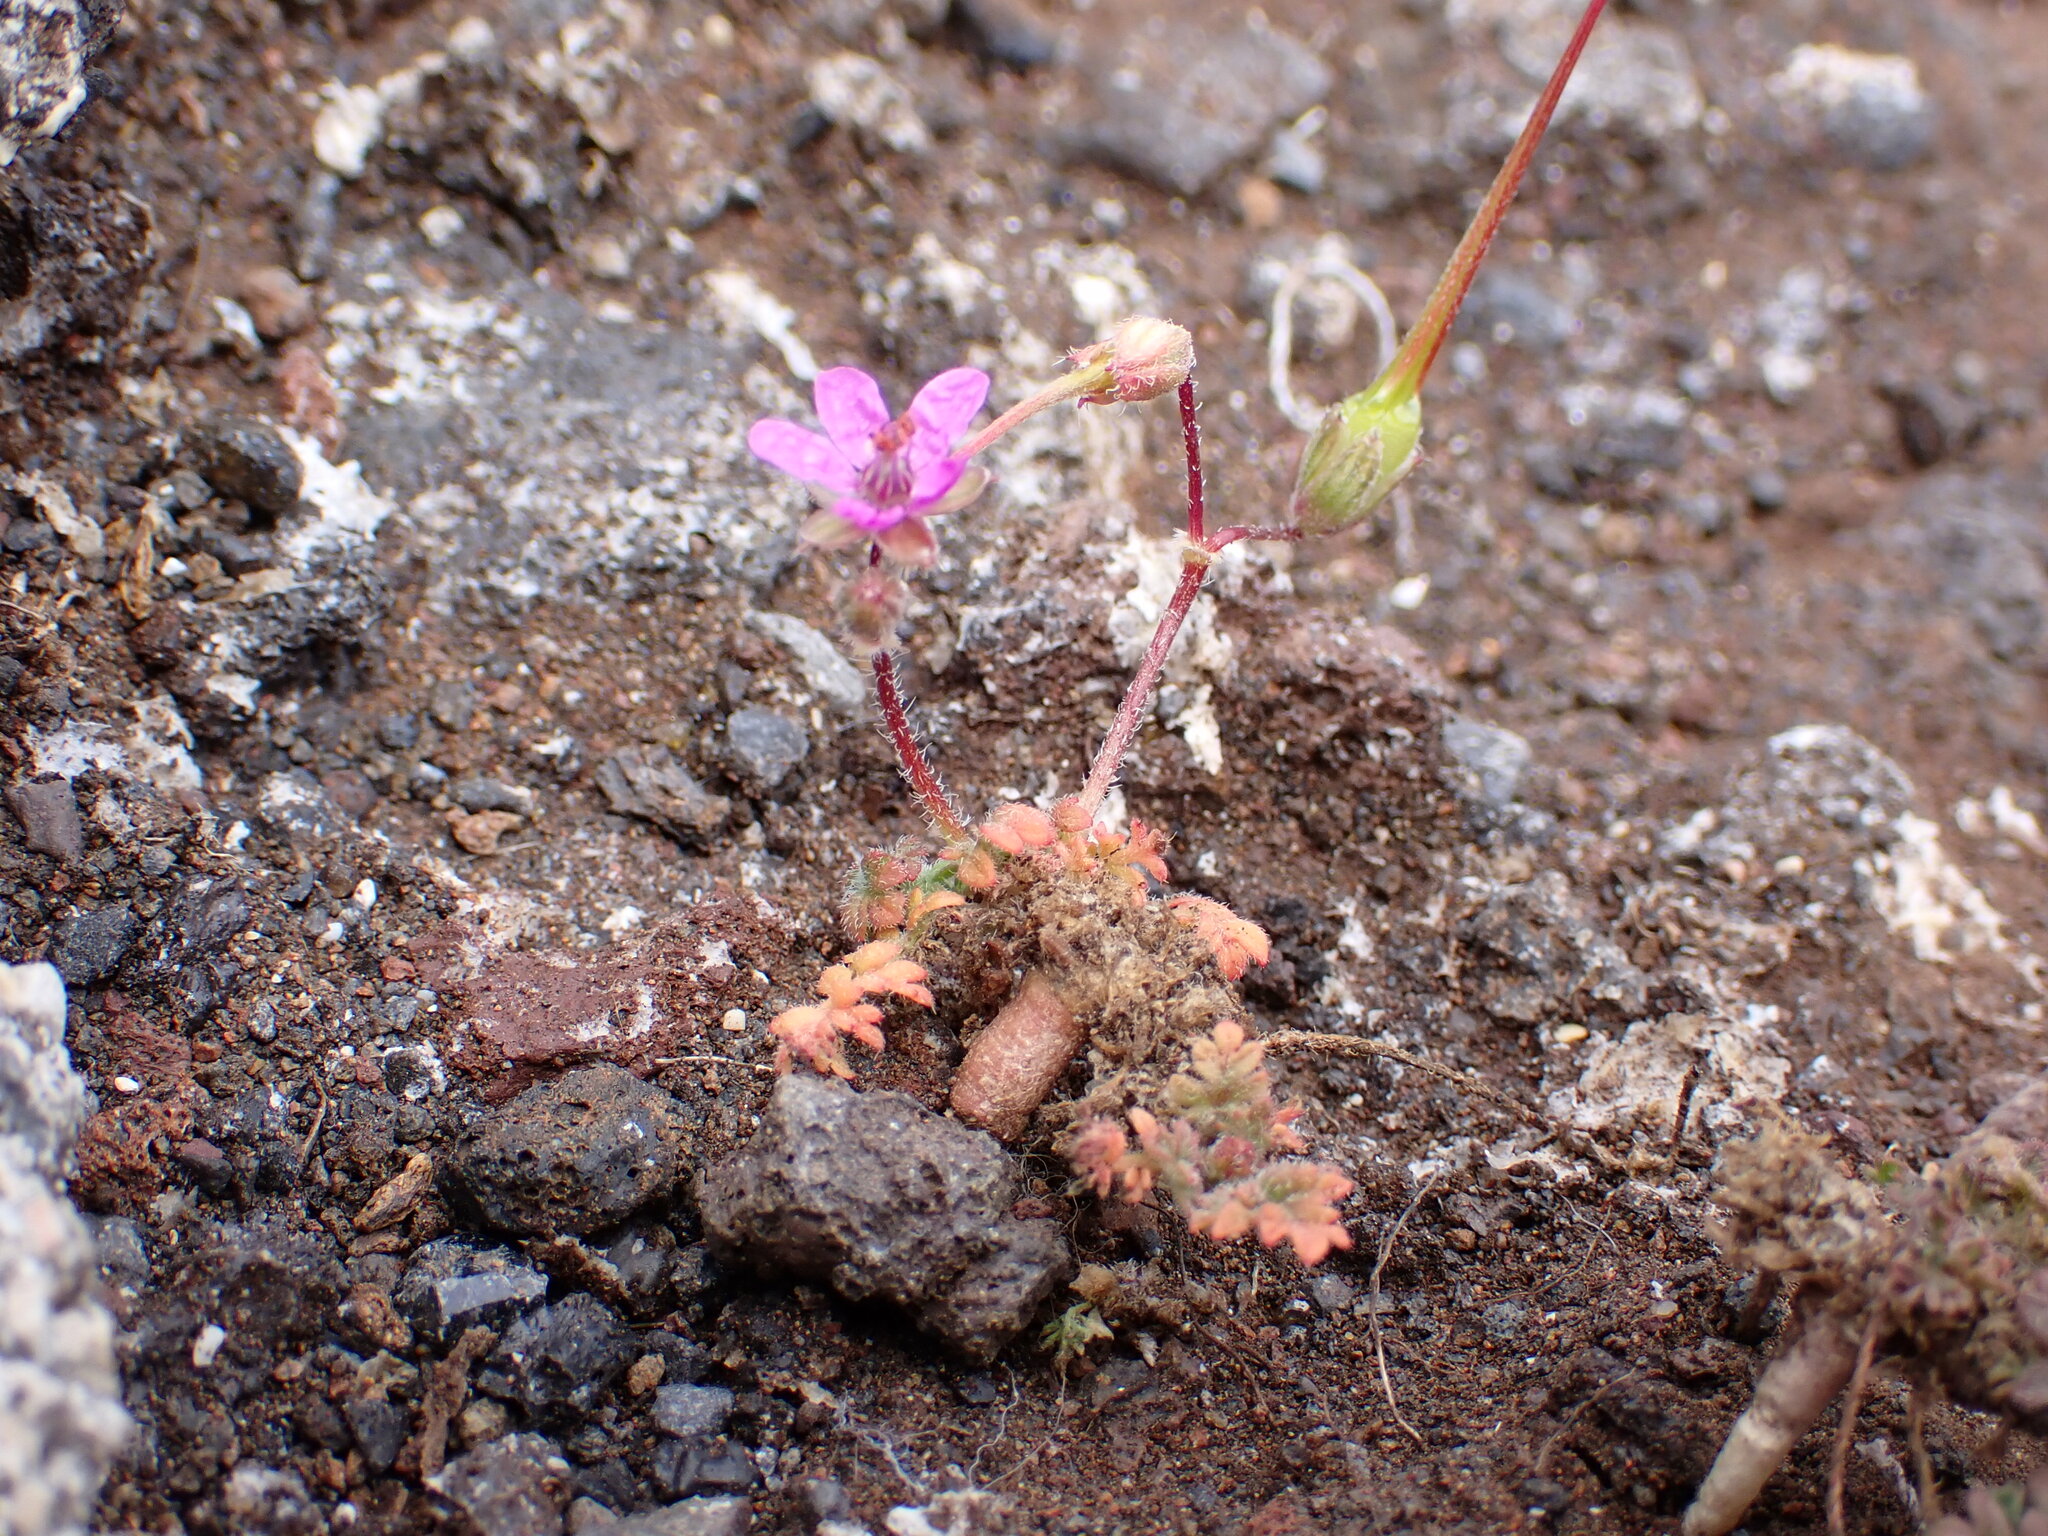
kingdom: Plantae
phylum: Tracheophyta
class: Magnoliopsida
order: Geraniales
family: Geraniaceae
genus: Erodium
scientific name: Erodium cicutarium
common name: Common stork's-bill
